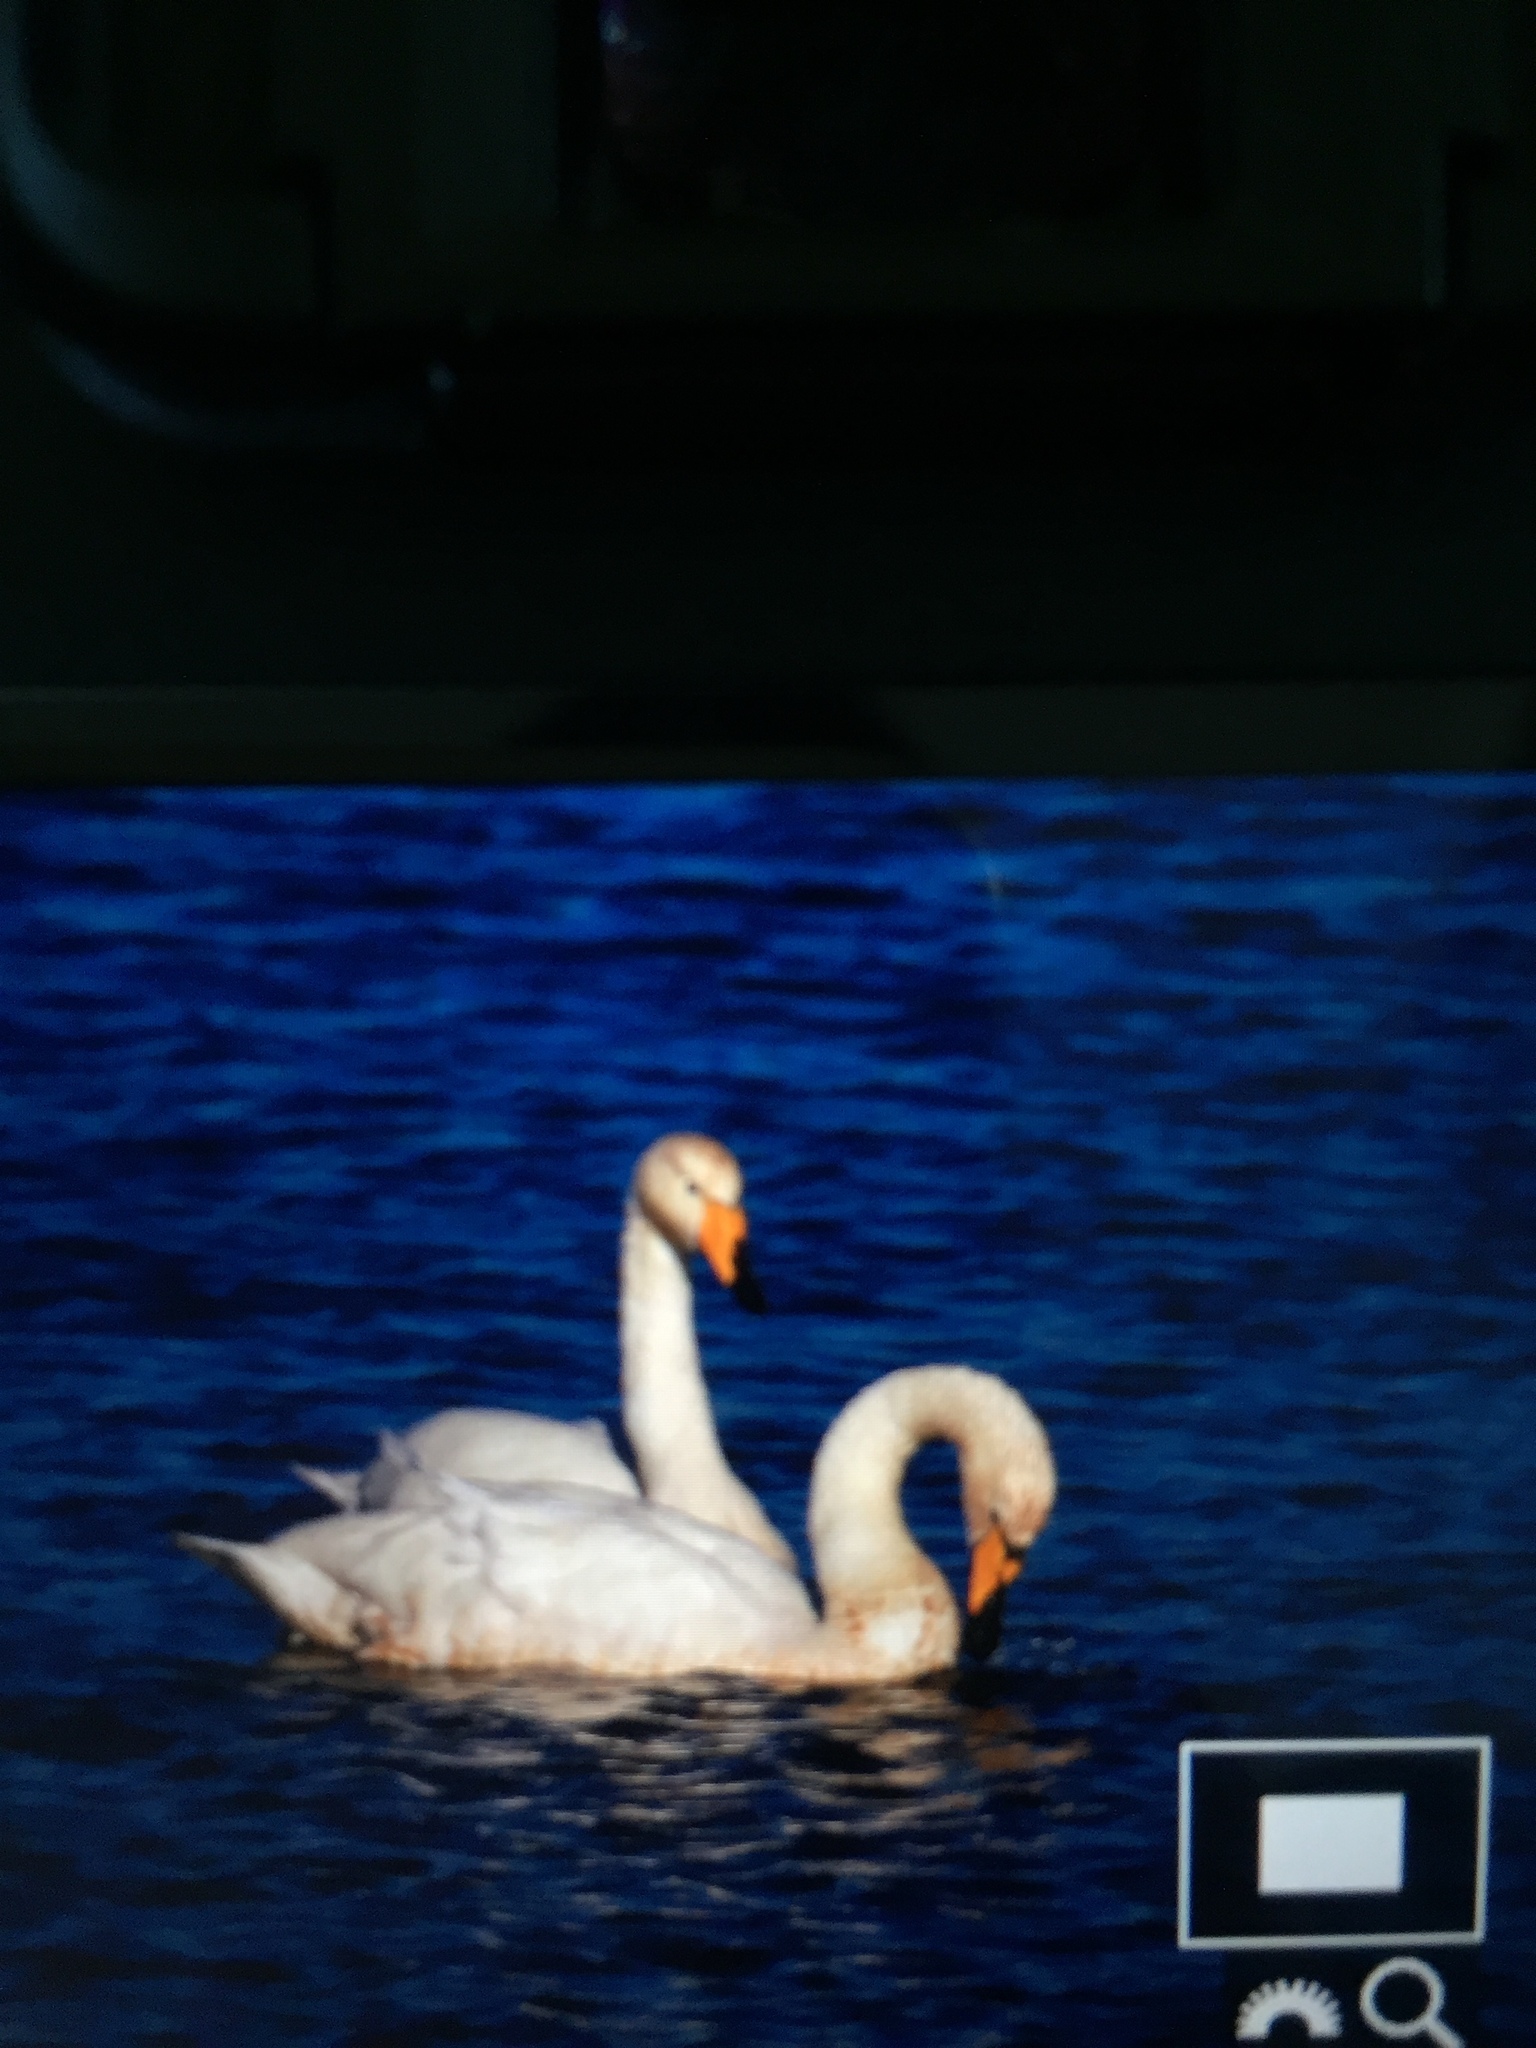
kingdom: Animalia
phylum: Chordata
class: Aves
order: Anseriformes
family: Anatidae
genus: Cygnus
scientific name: Cygnus cygnus
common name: Whooper swan
